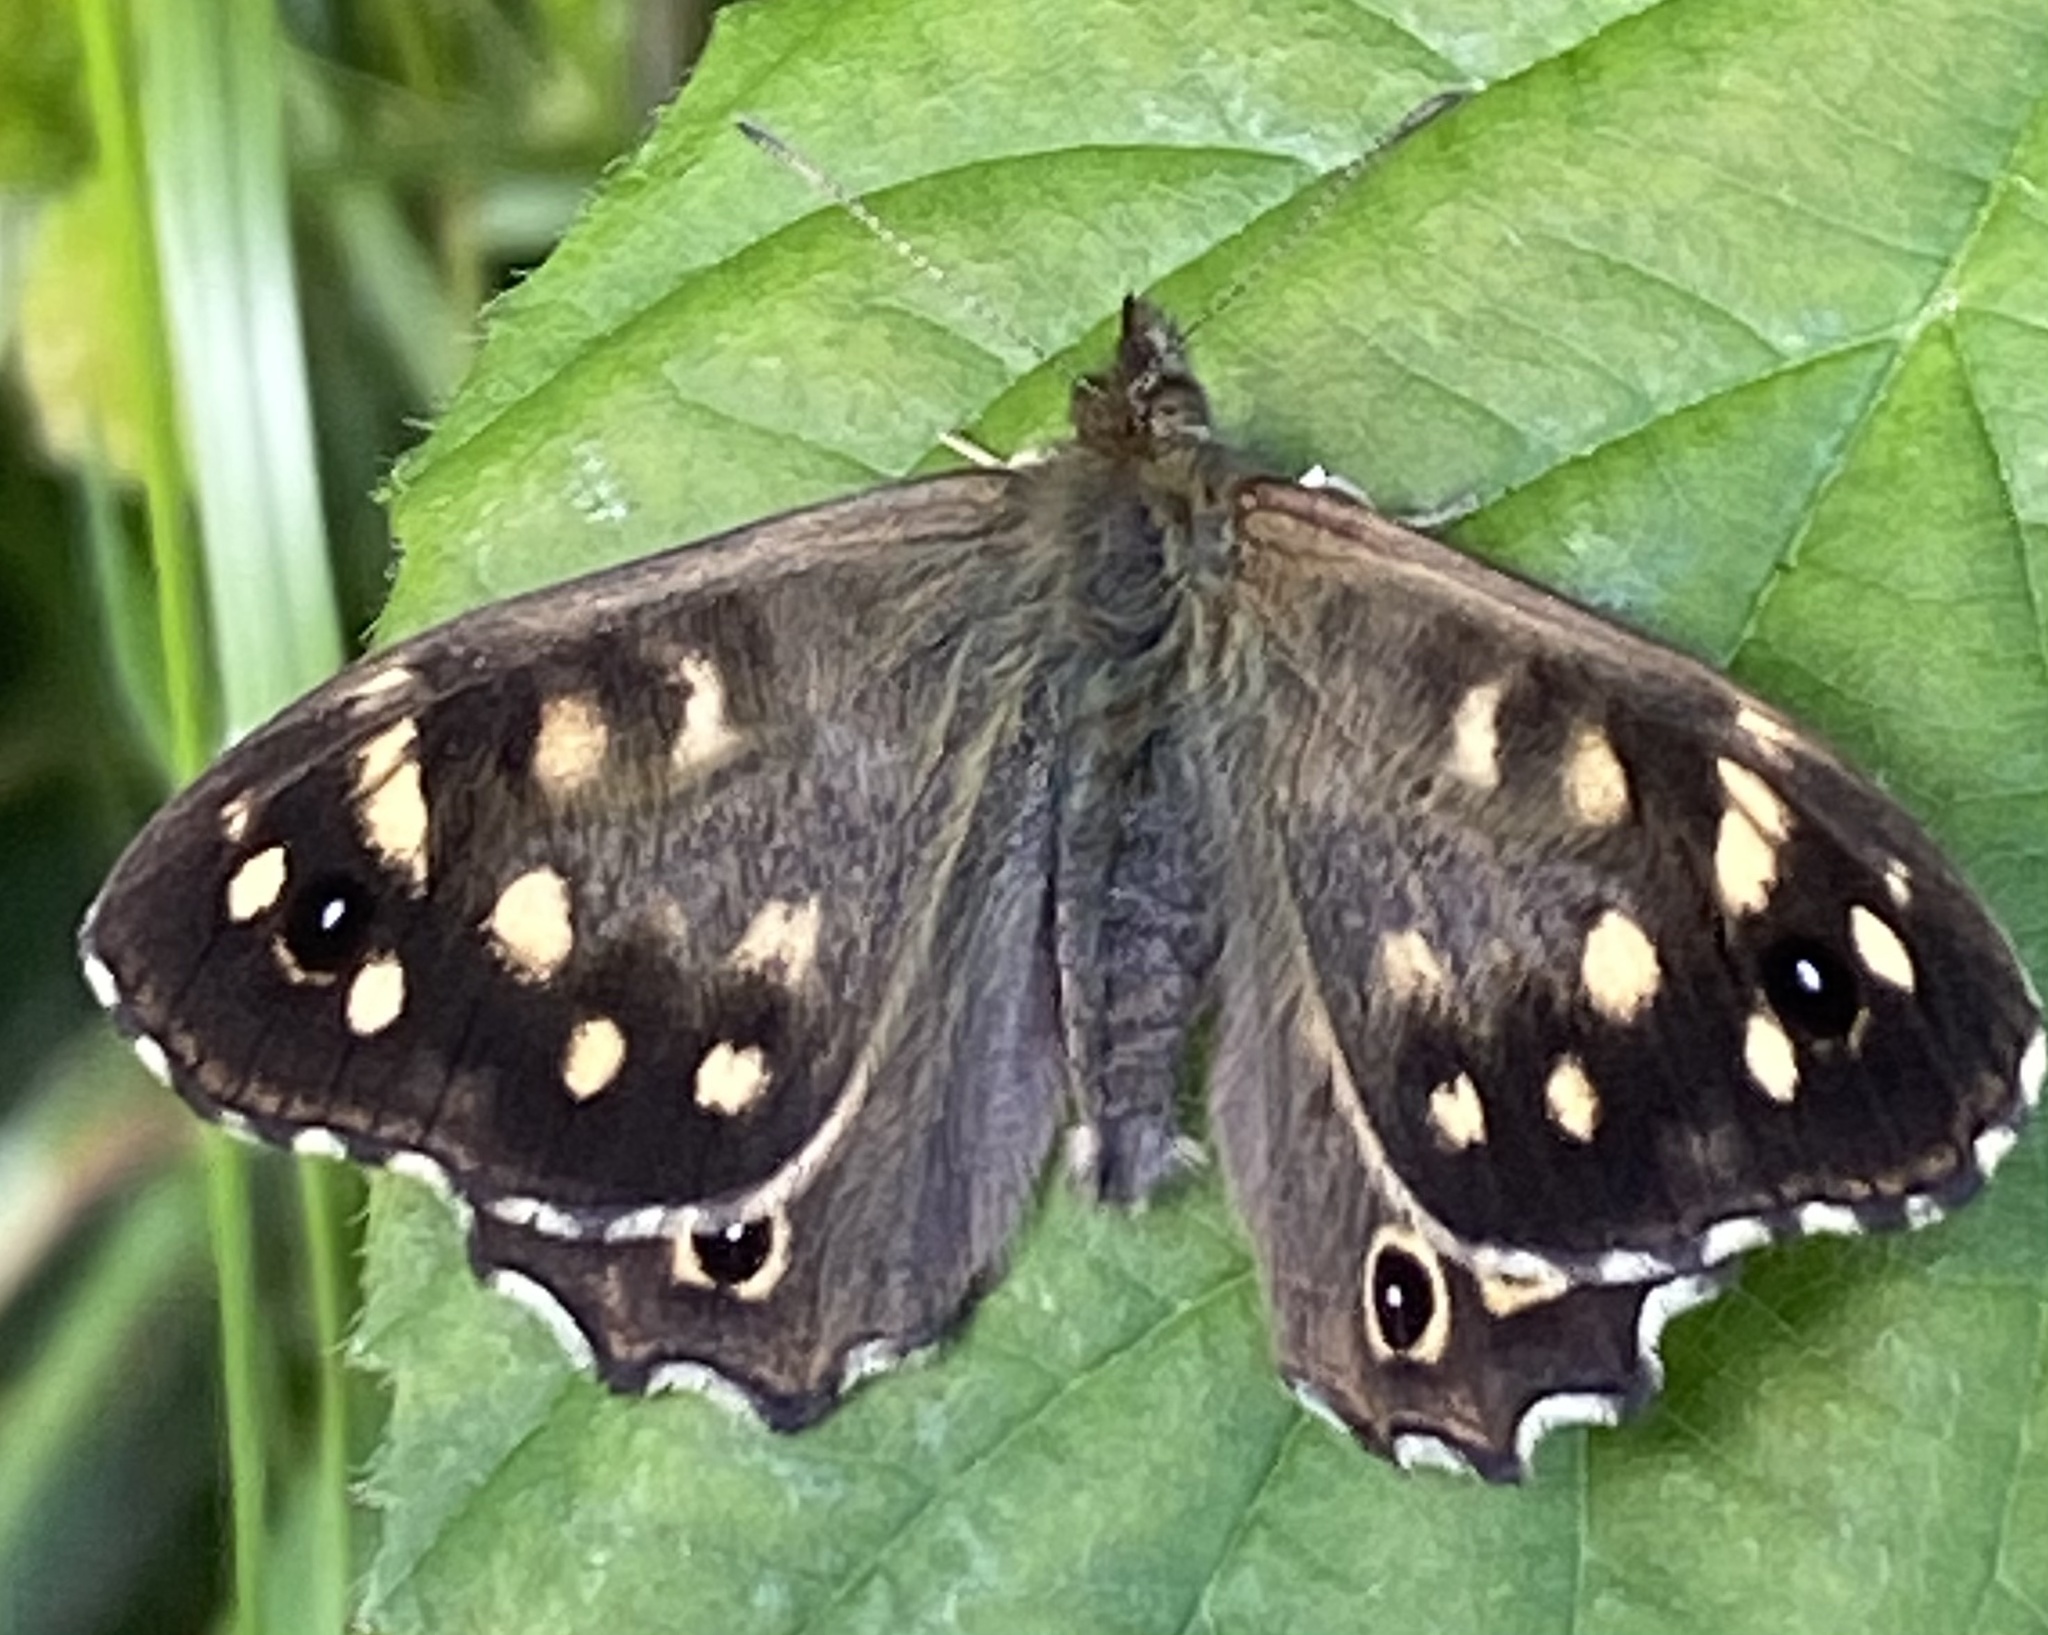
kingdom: Animalia
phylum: Arthropoda
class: Insecta
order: Lepidoptera
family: Nymphalidae
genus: Pararge
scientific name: Pararge aegeria
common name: Speckled wood
